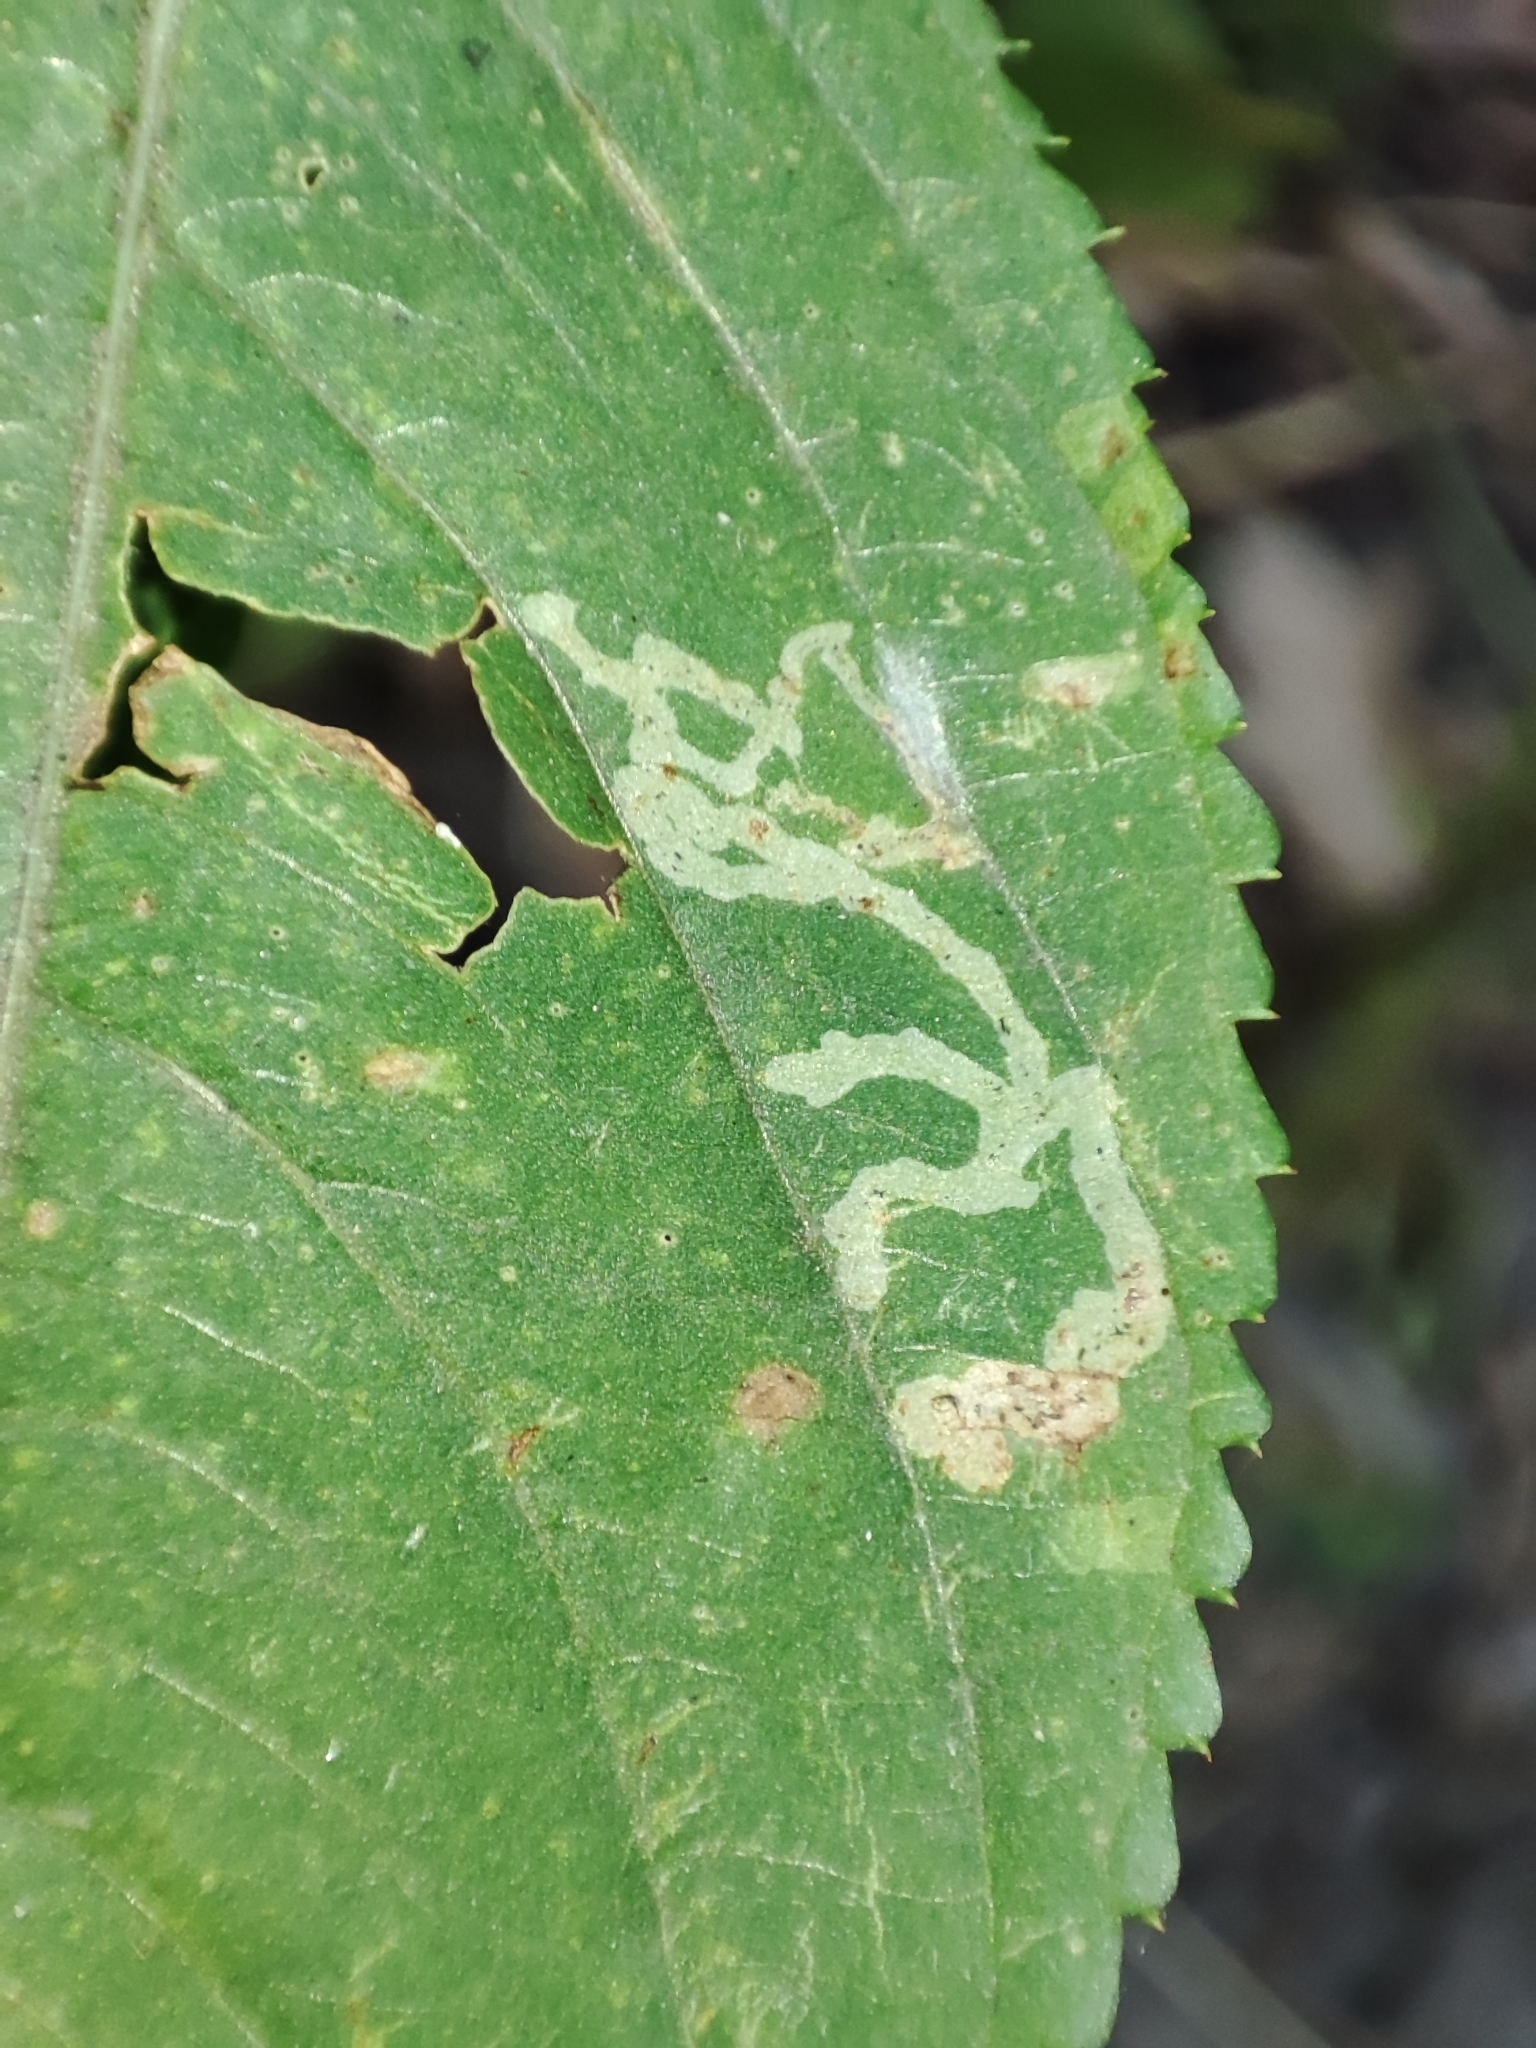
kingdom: Plantae
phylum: Tracheophyta
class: Magnoliopsida
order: Ericales
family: Balsaminaceae
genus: Impatiens
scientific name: Impatiens parviflora
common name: Small balsam
